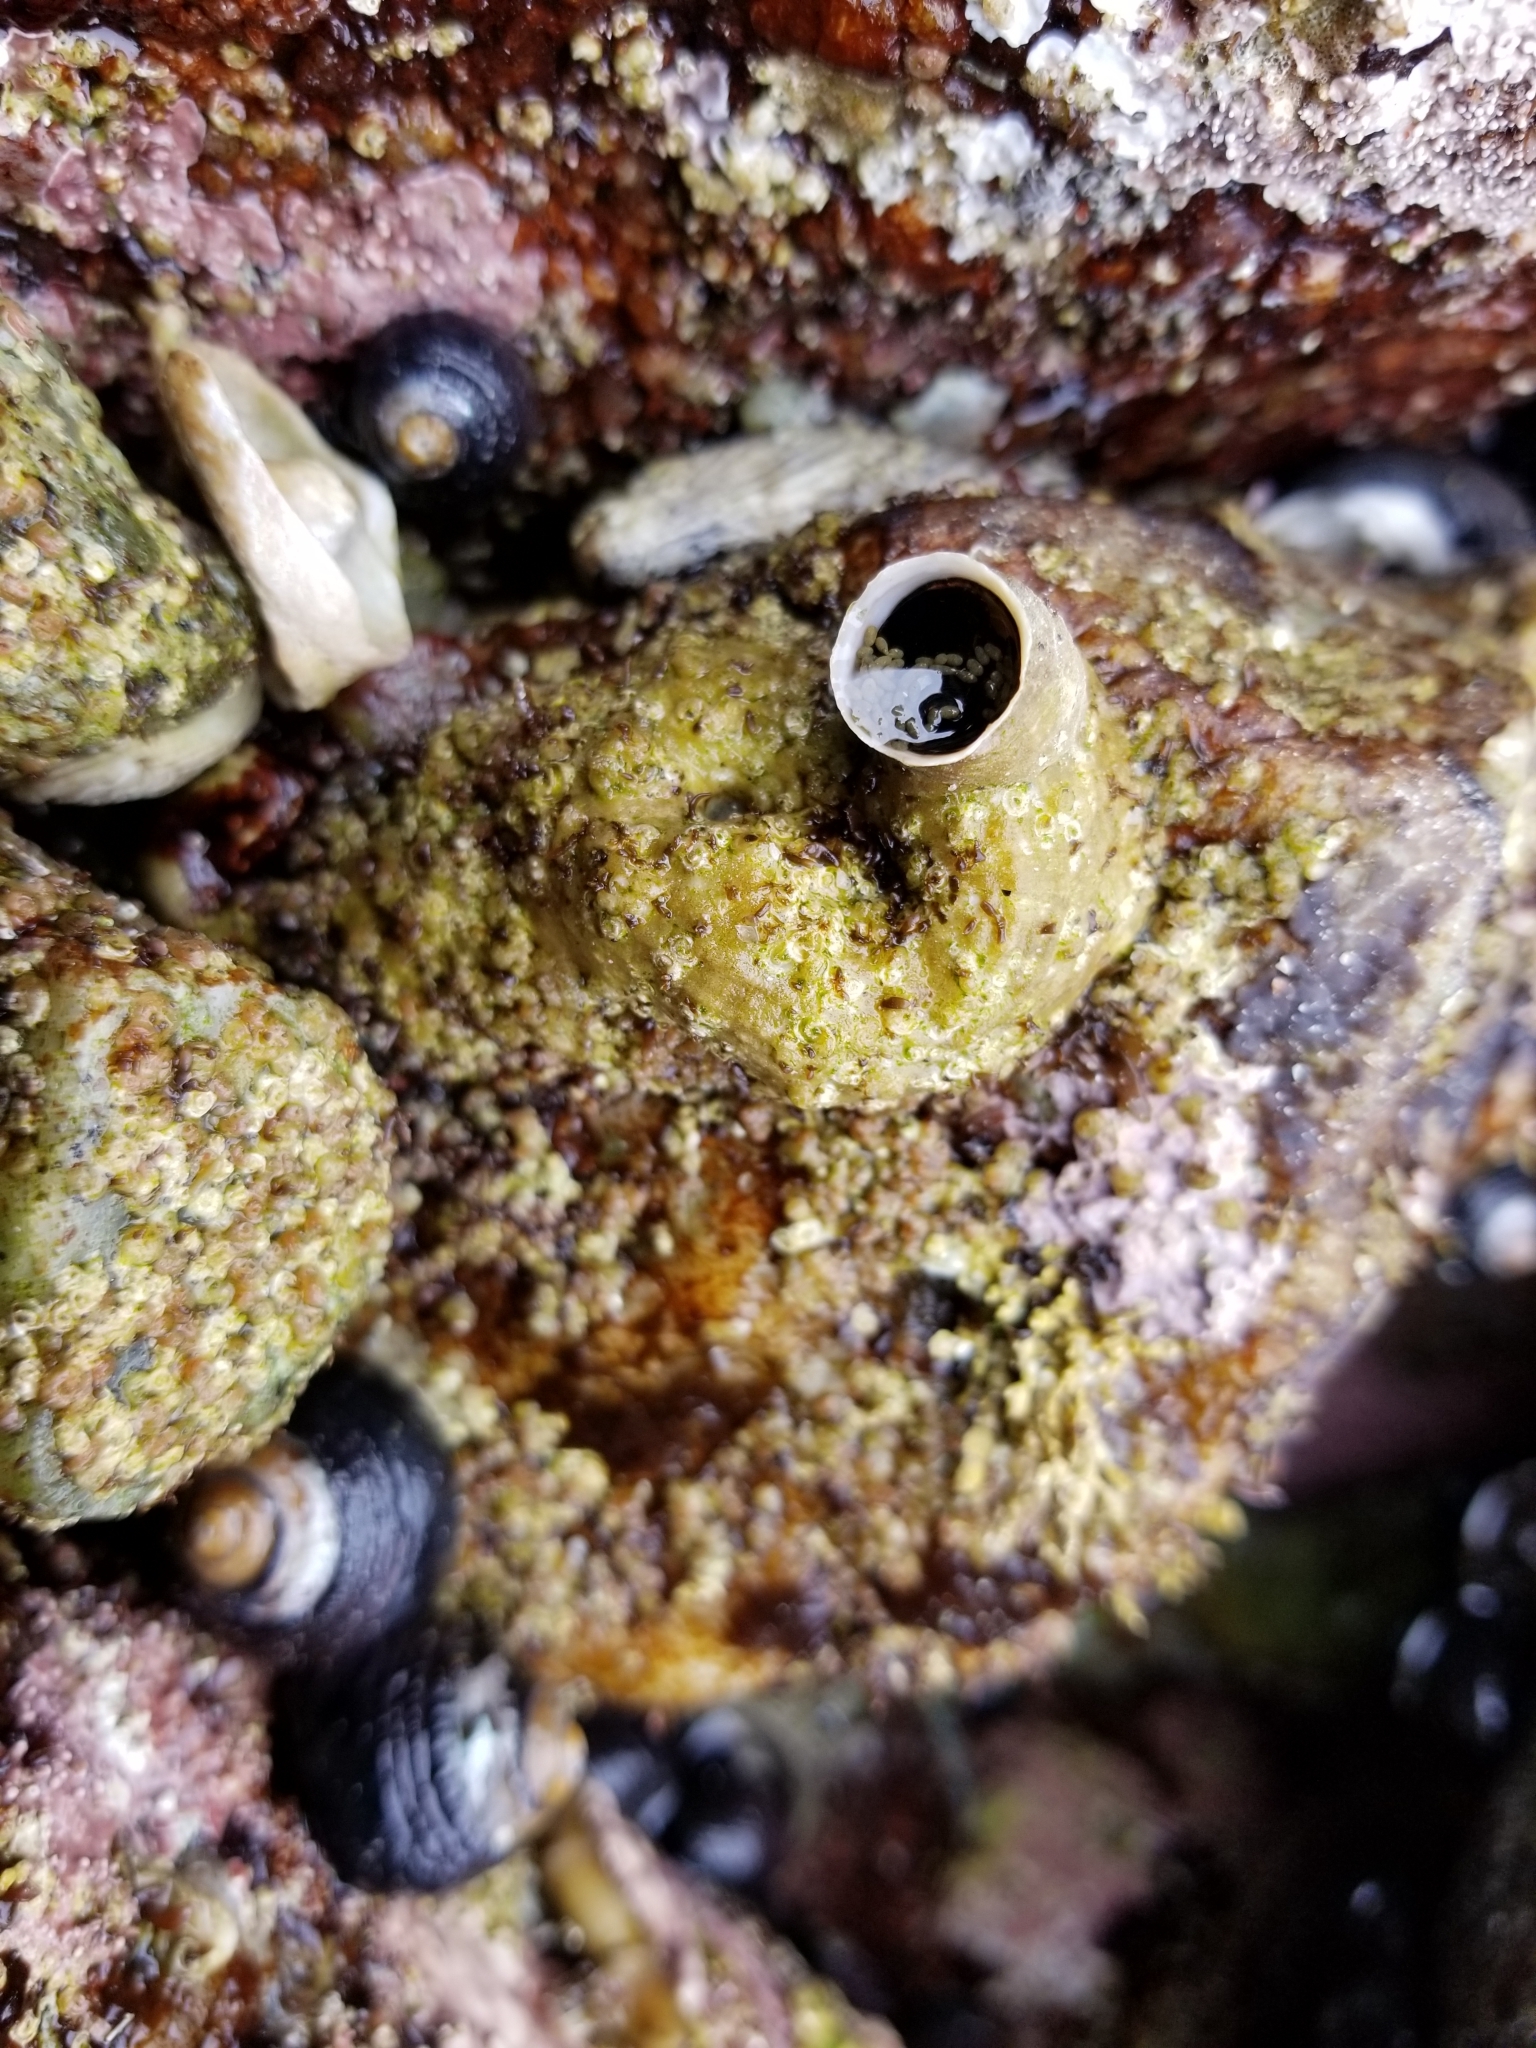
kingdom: Animalia
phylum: Mollusca
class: Gastropoda
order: Littorinimorpha
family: Vermetidae
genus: Thylacodes
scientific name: Thylacodes squamigerus
